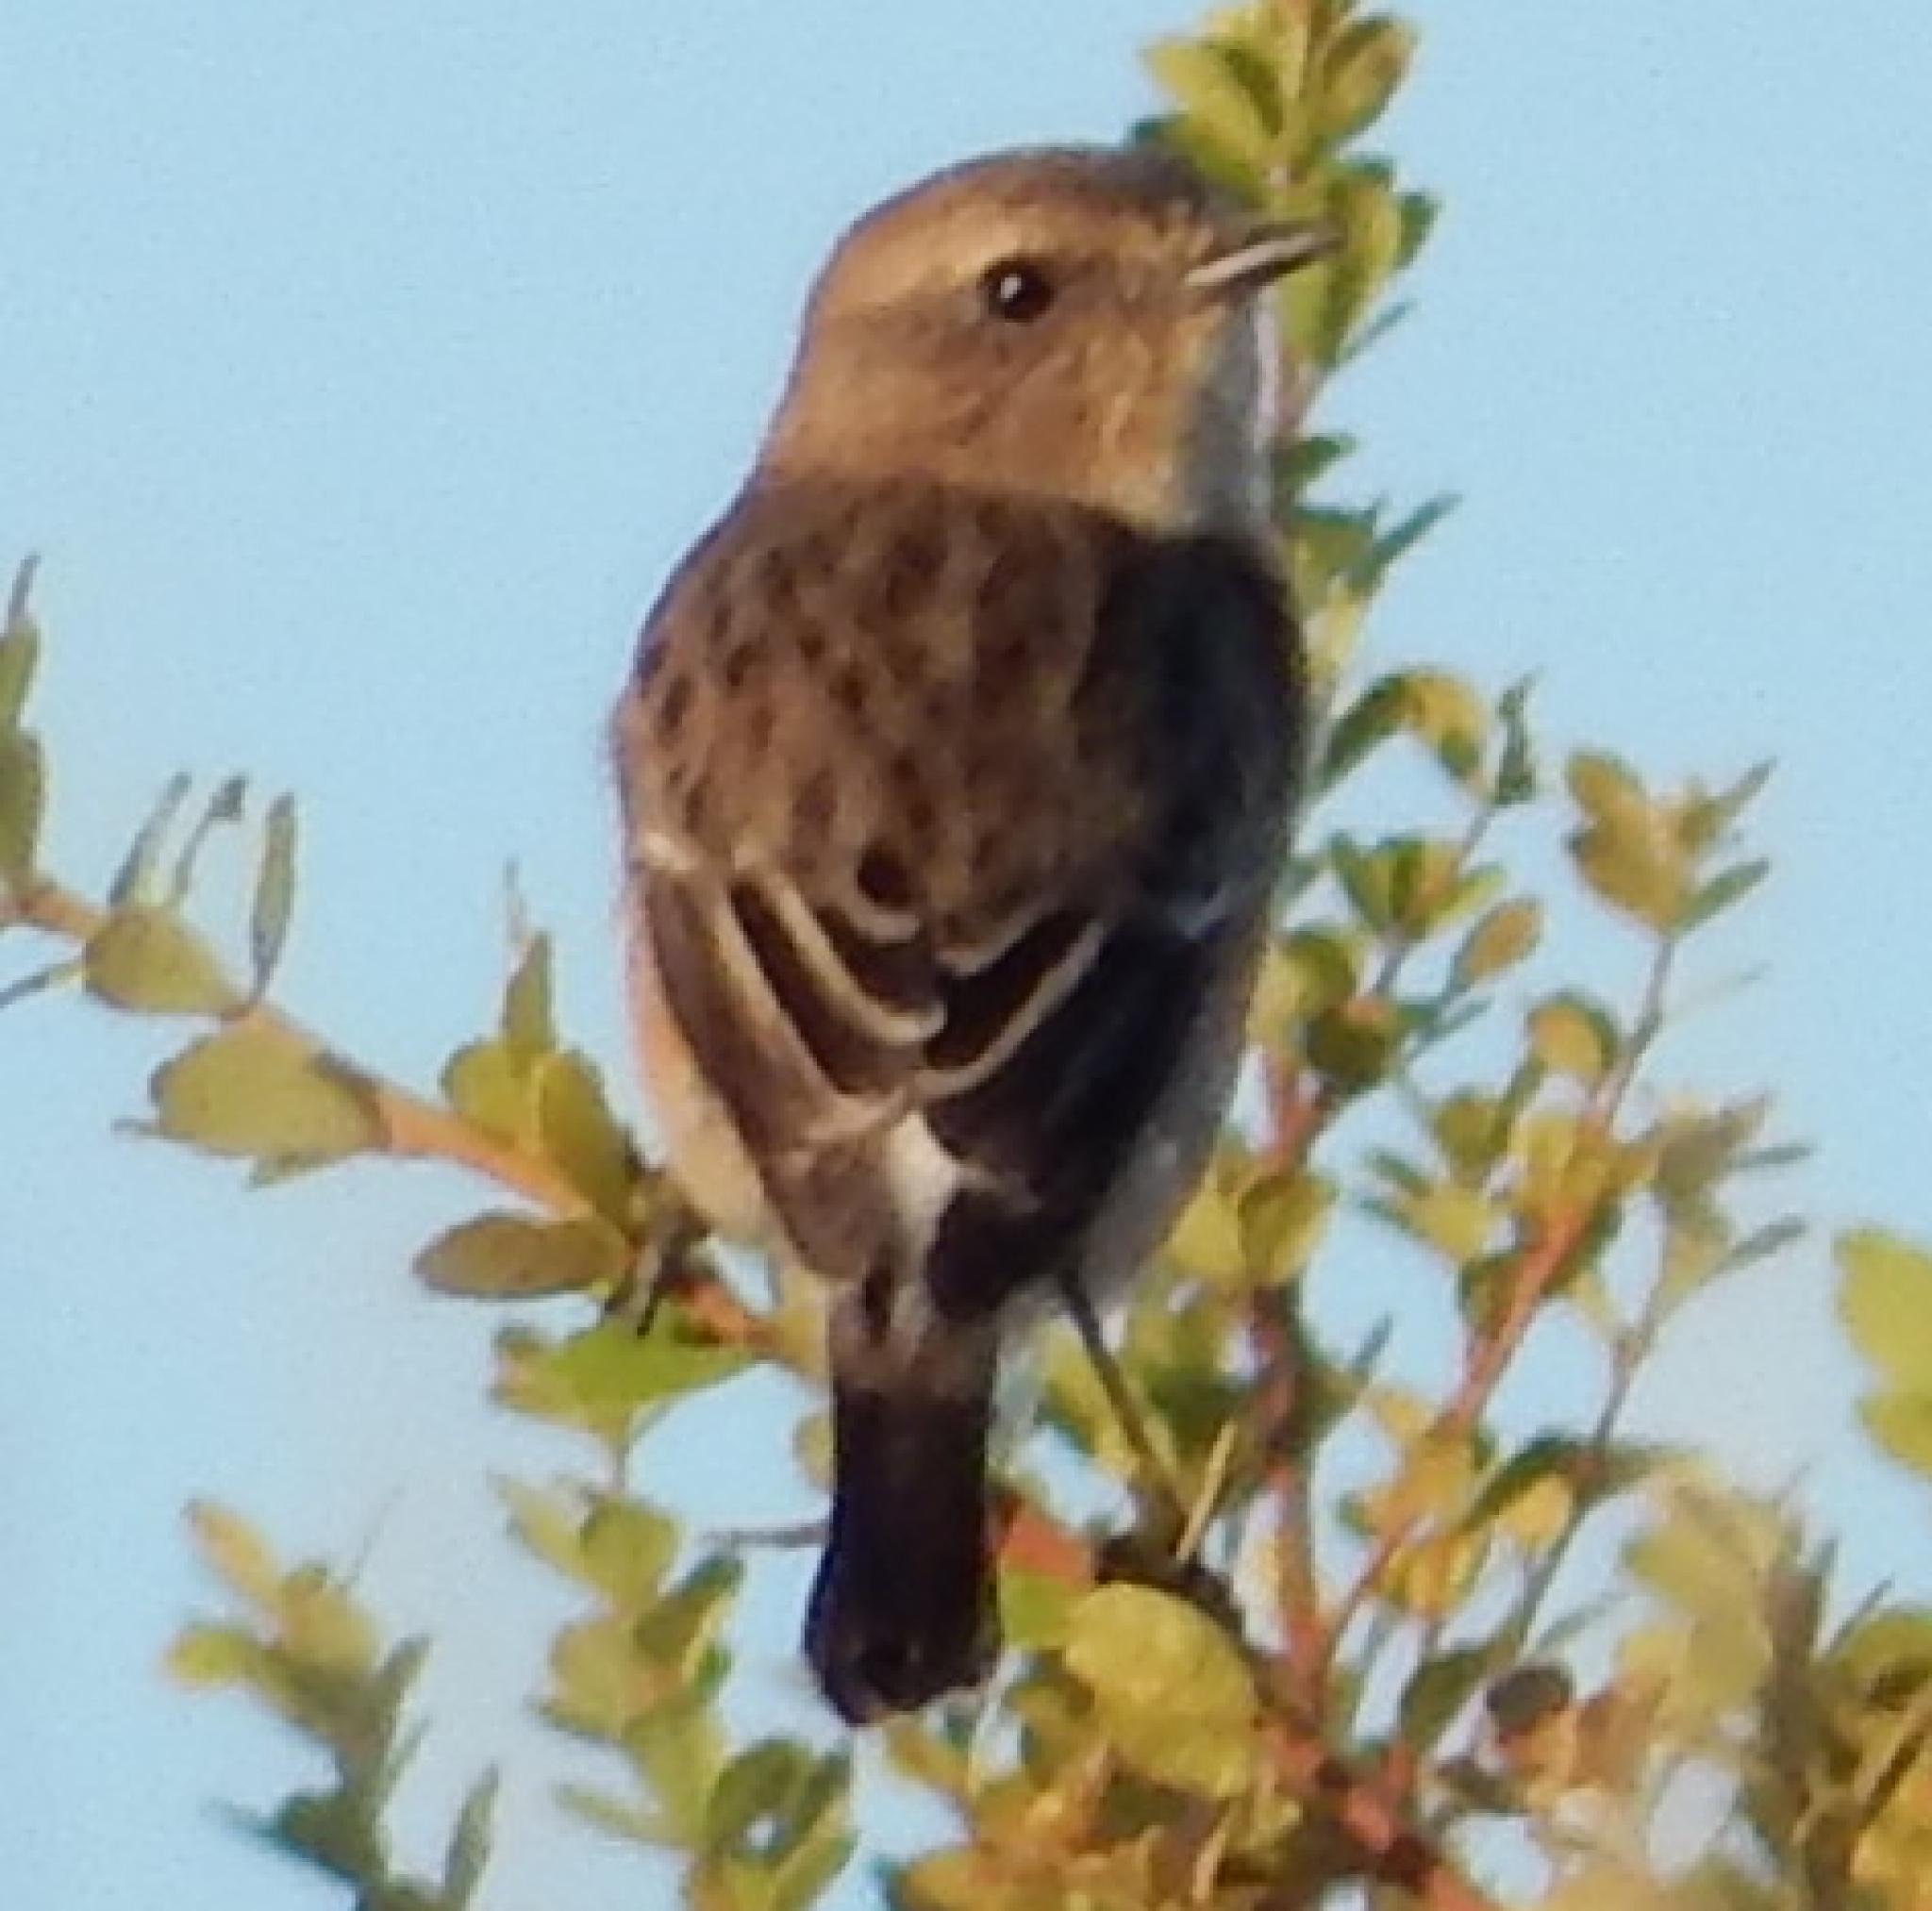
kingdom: Animalia
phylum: Chordata
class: Aves
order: Passeriformes
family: Muscicapidae
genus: Saxicola
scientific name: Saxicola torquatus
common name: African stonechat
